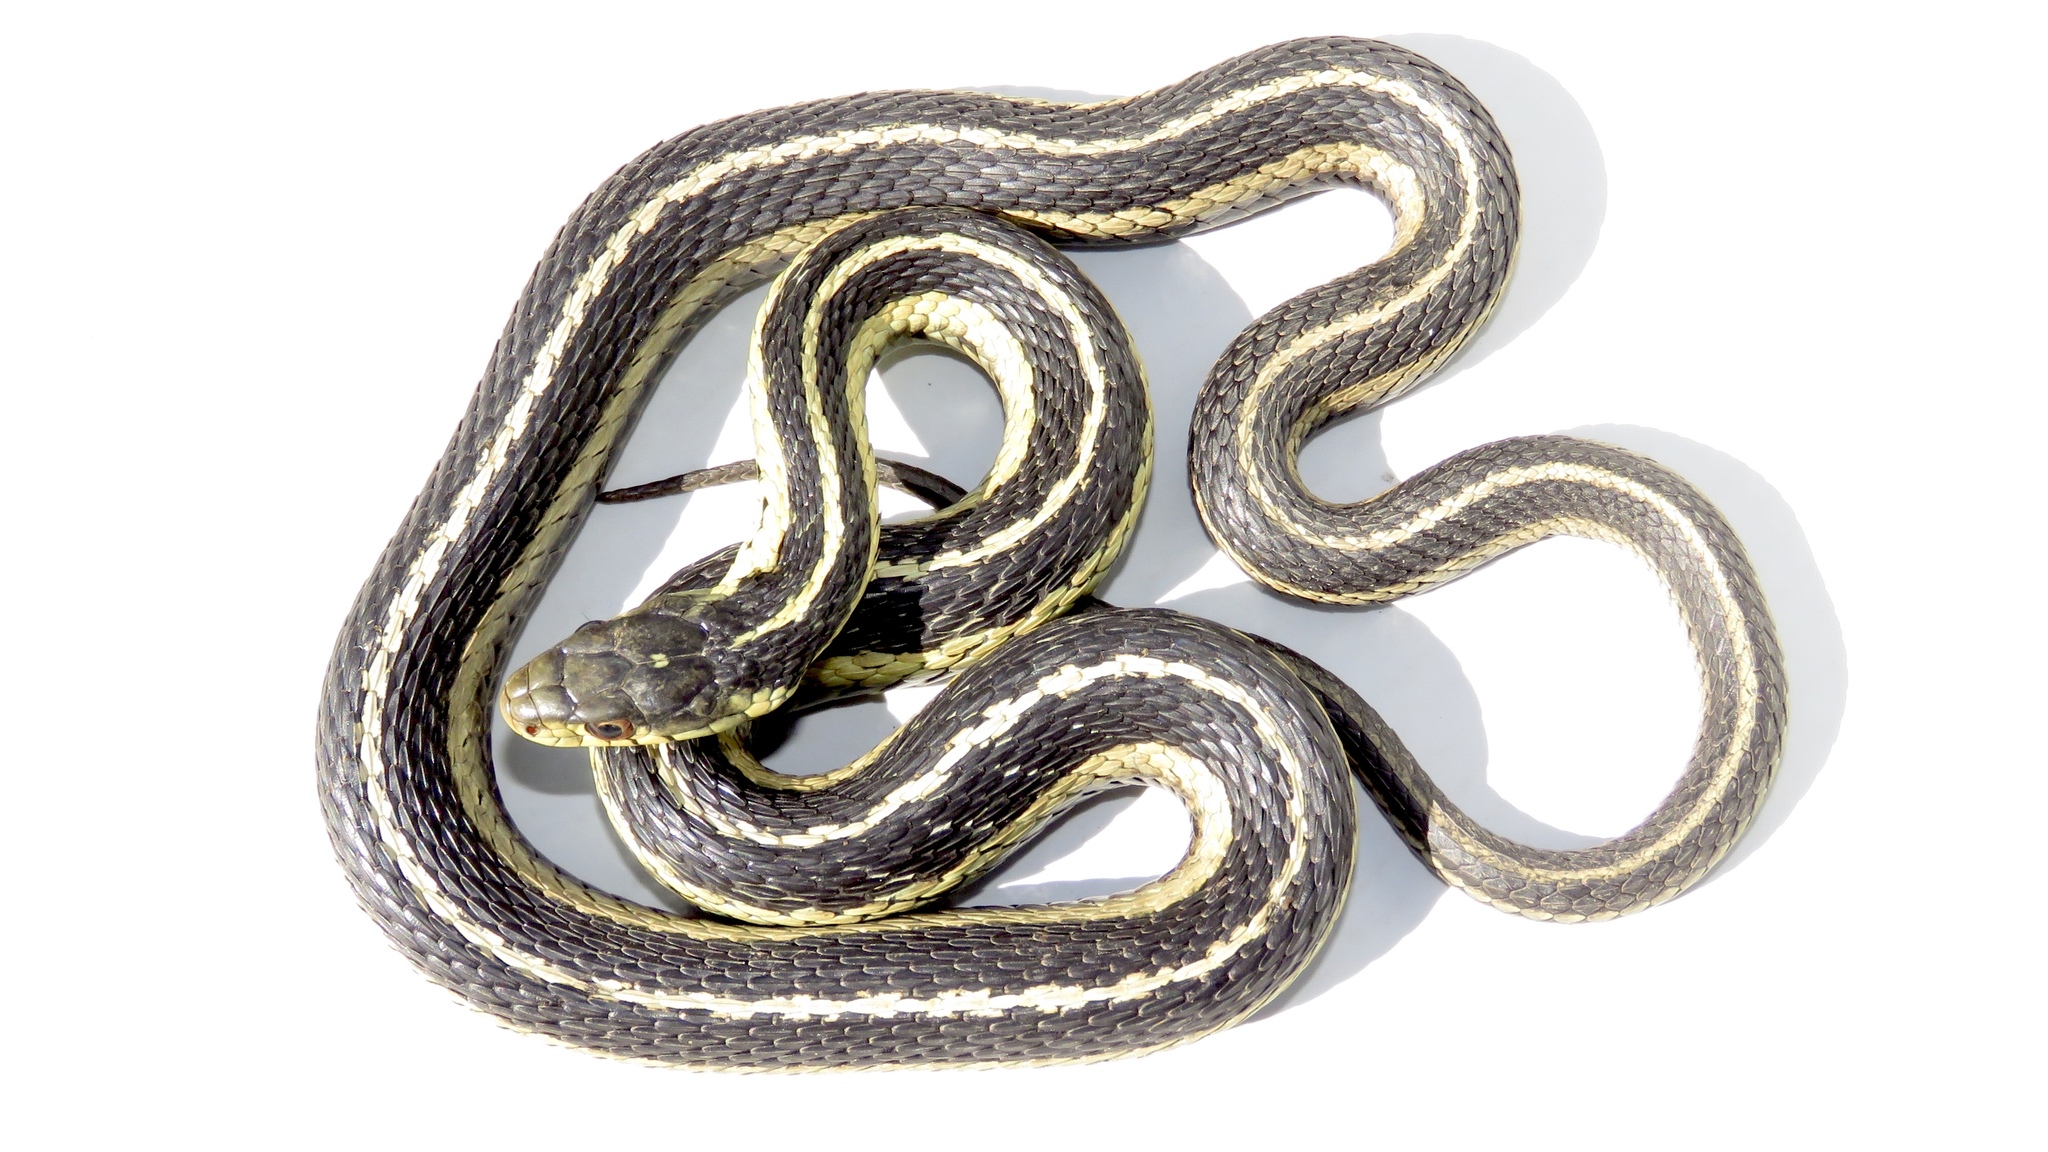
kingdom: Animalia
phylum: Chordata
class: Squamata
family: Colubridae
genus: Thamnophis
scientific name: Thamnophis sirtalis
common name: Common garter snake
